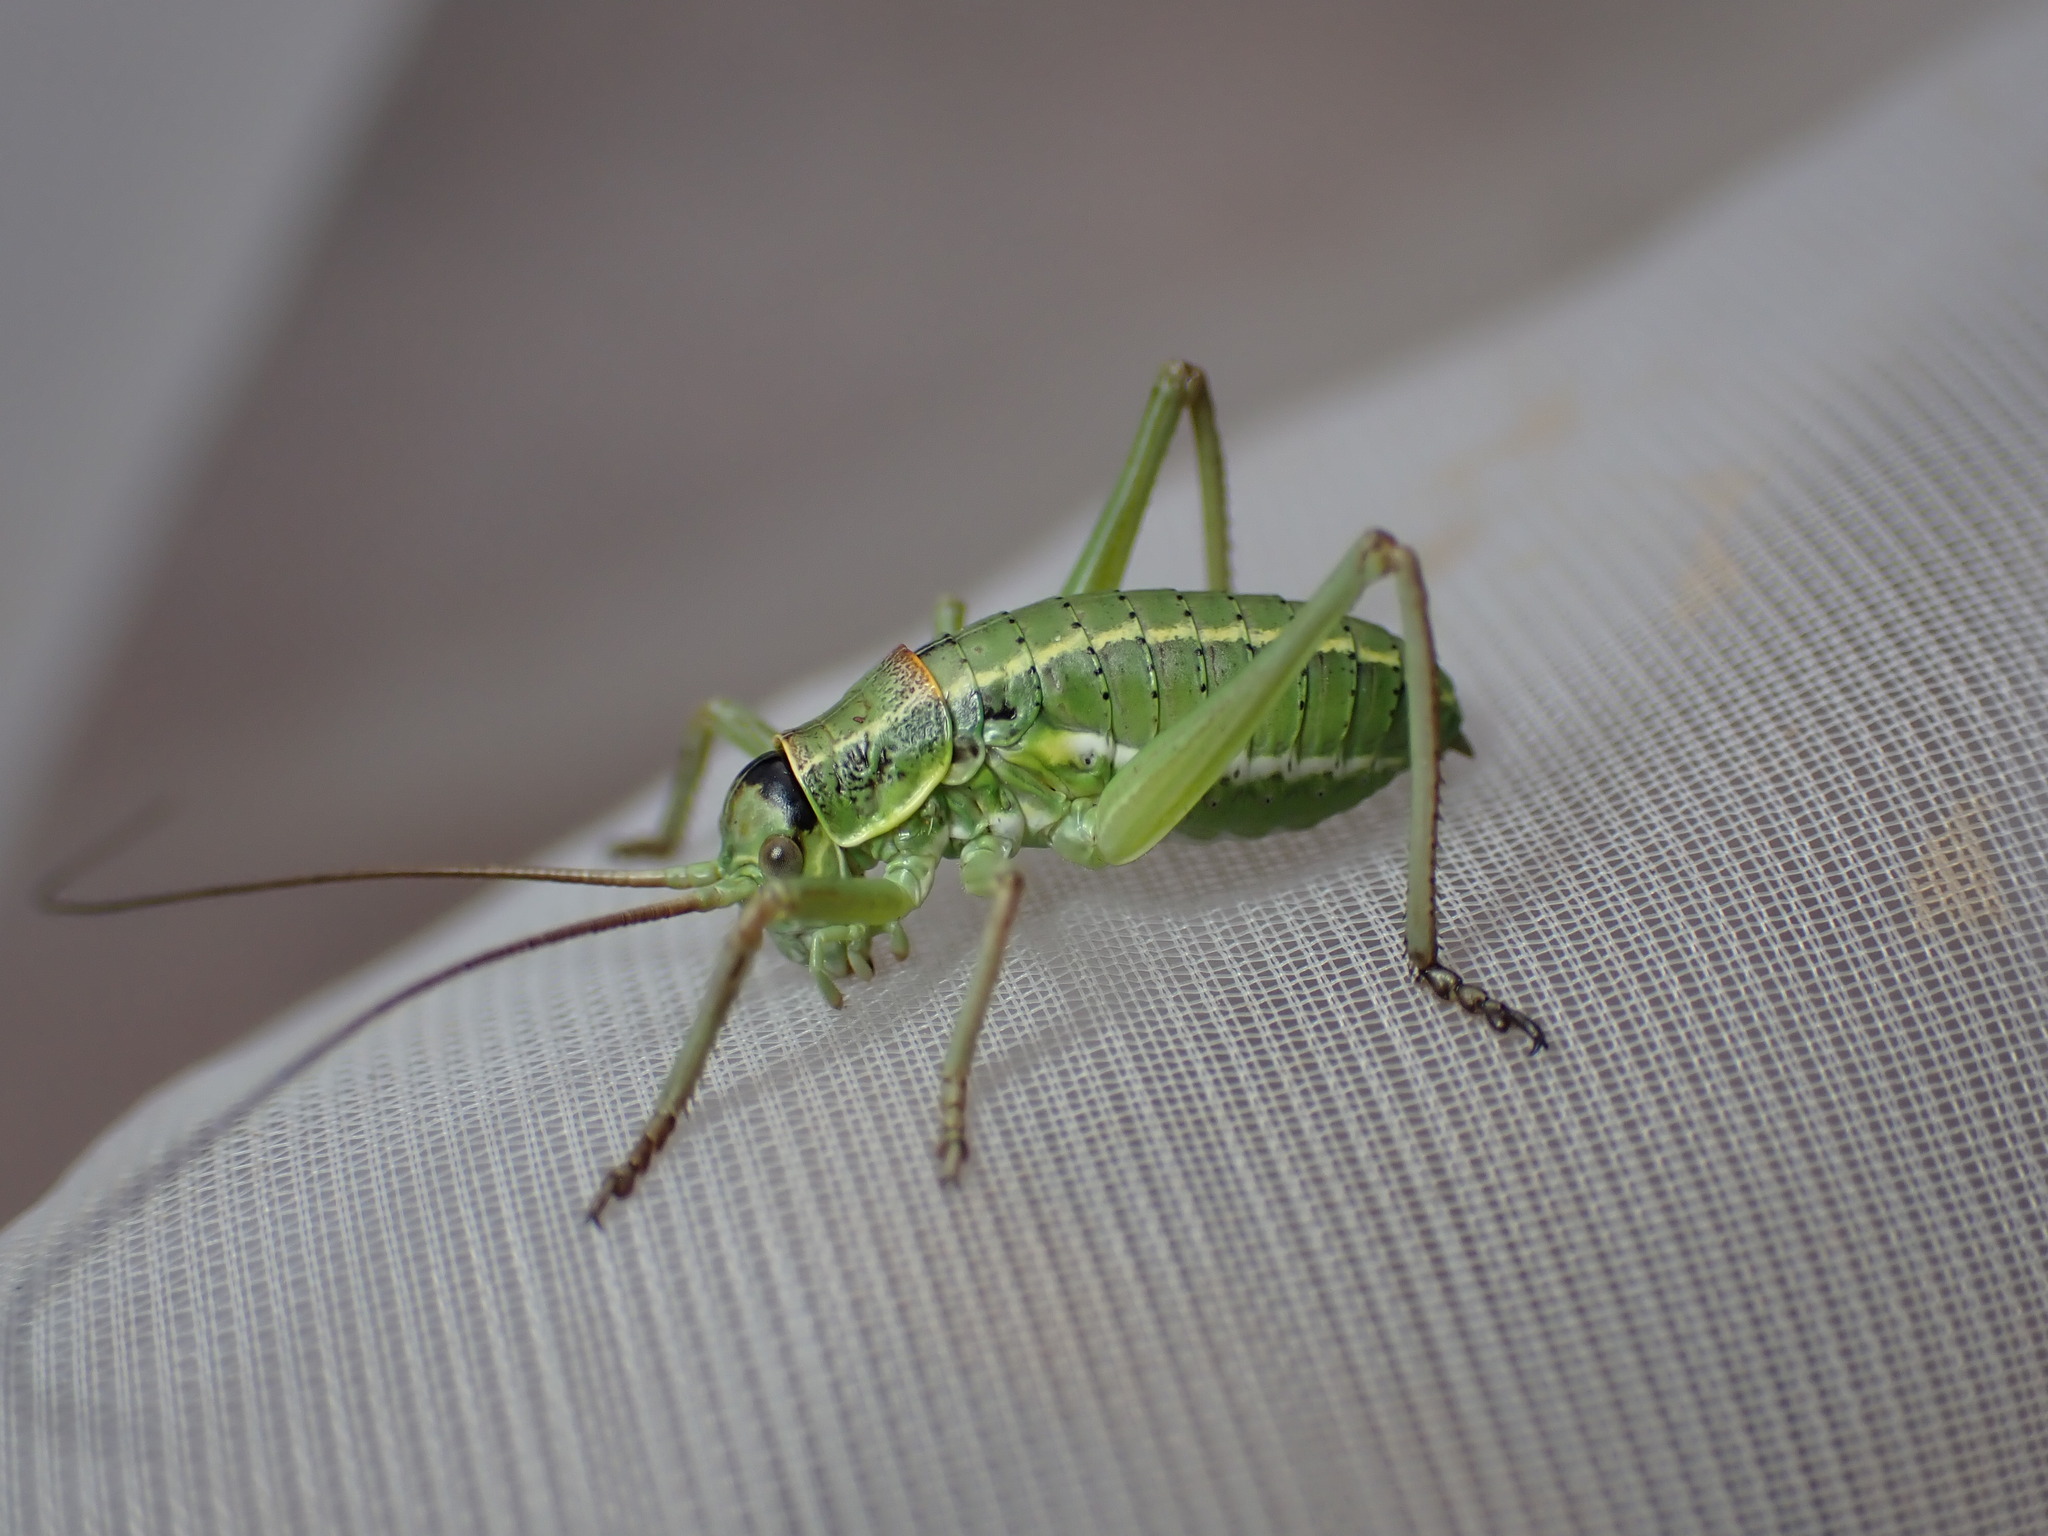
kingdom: Animalia
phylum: Arthropoda
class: Insecta
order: Orthoptera
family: Tettigoniidae
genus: Ephippiger
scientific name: Ephippiger terrestris
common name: Alpine saddle-backed bush-cricket
